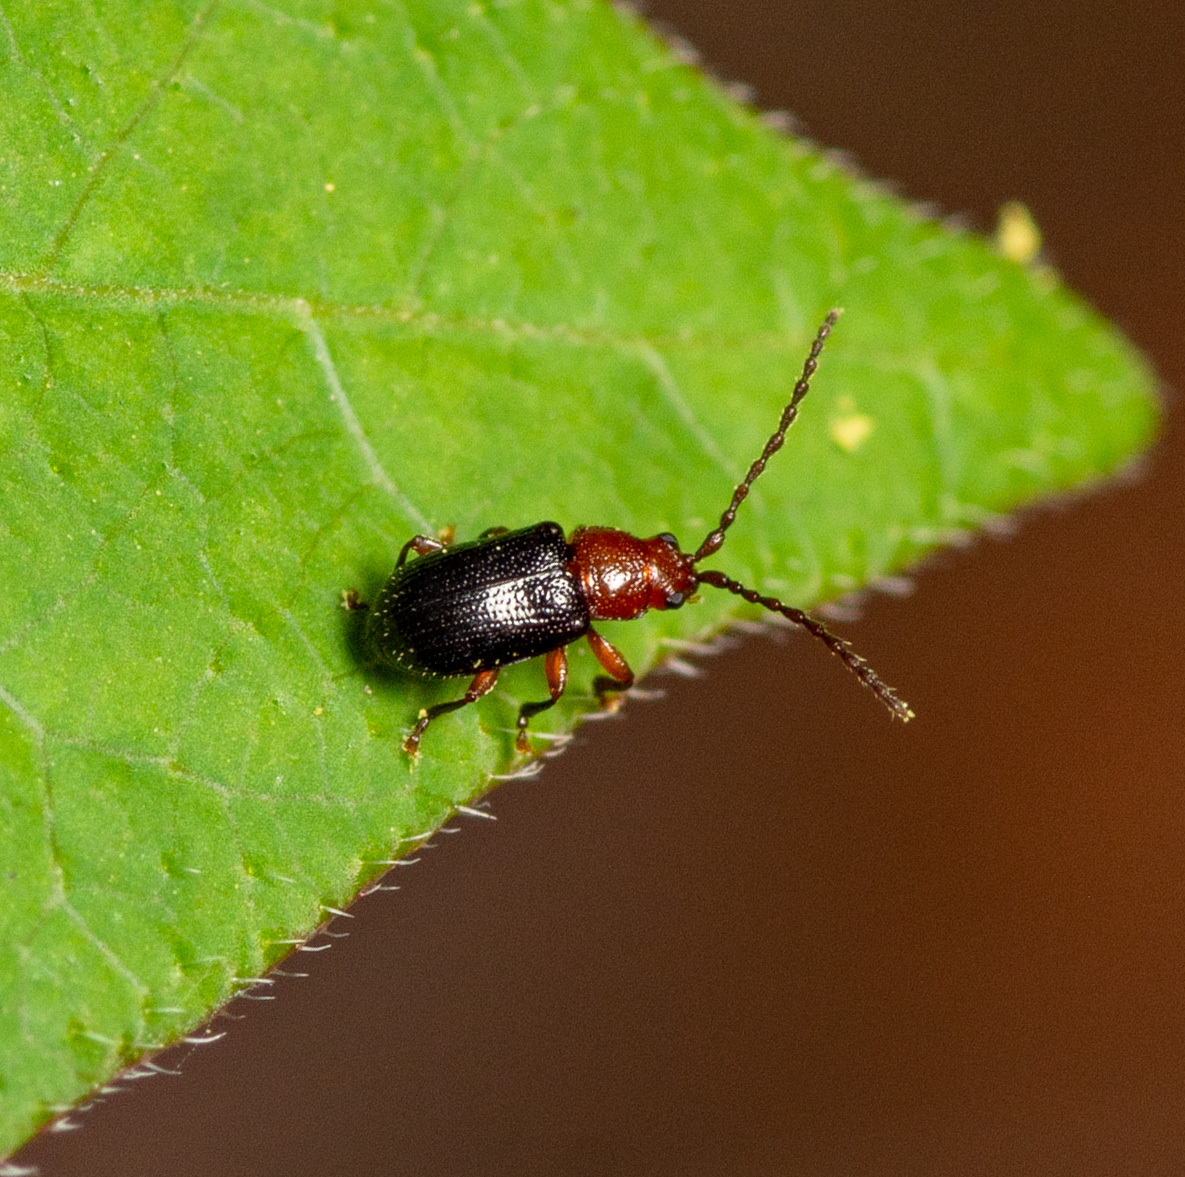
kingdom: Animalia
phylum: Arthropoda
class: Insecta
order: Coleoptera
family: Chrysomelidae
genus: Aulacothorax
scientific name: Aulacothorax
